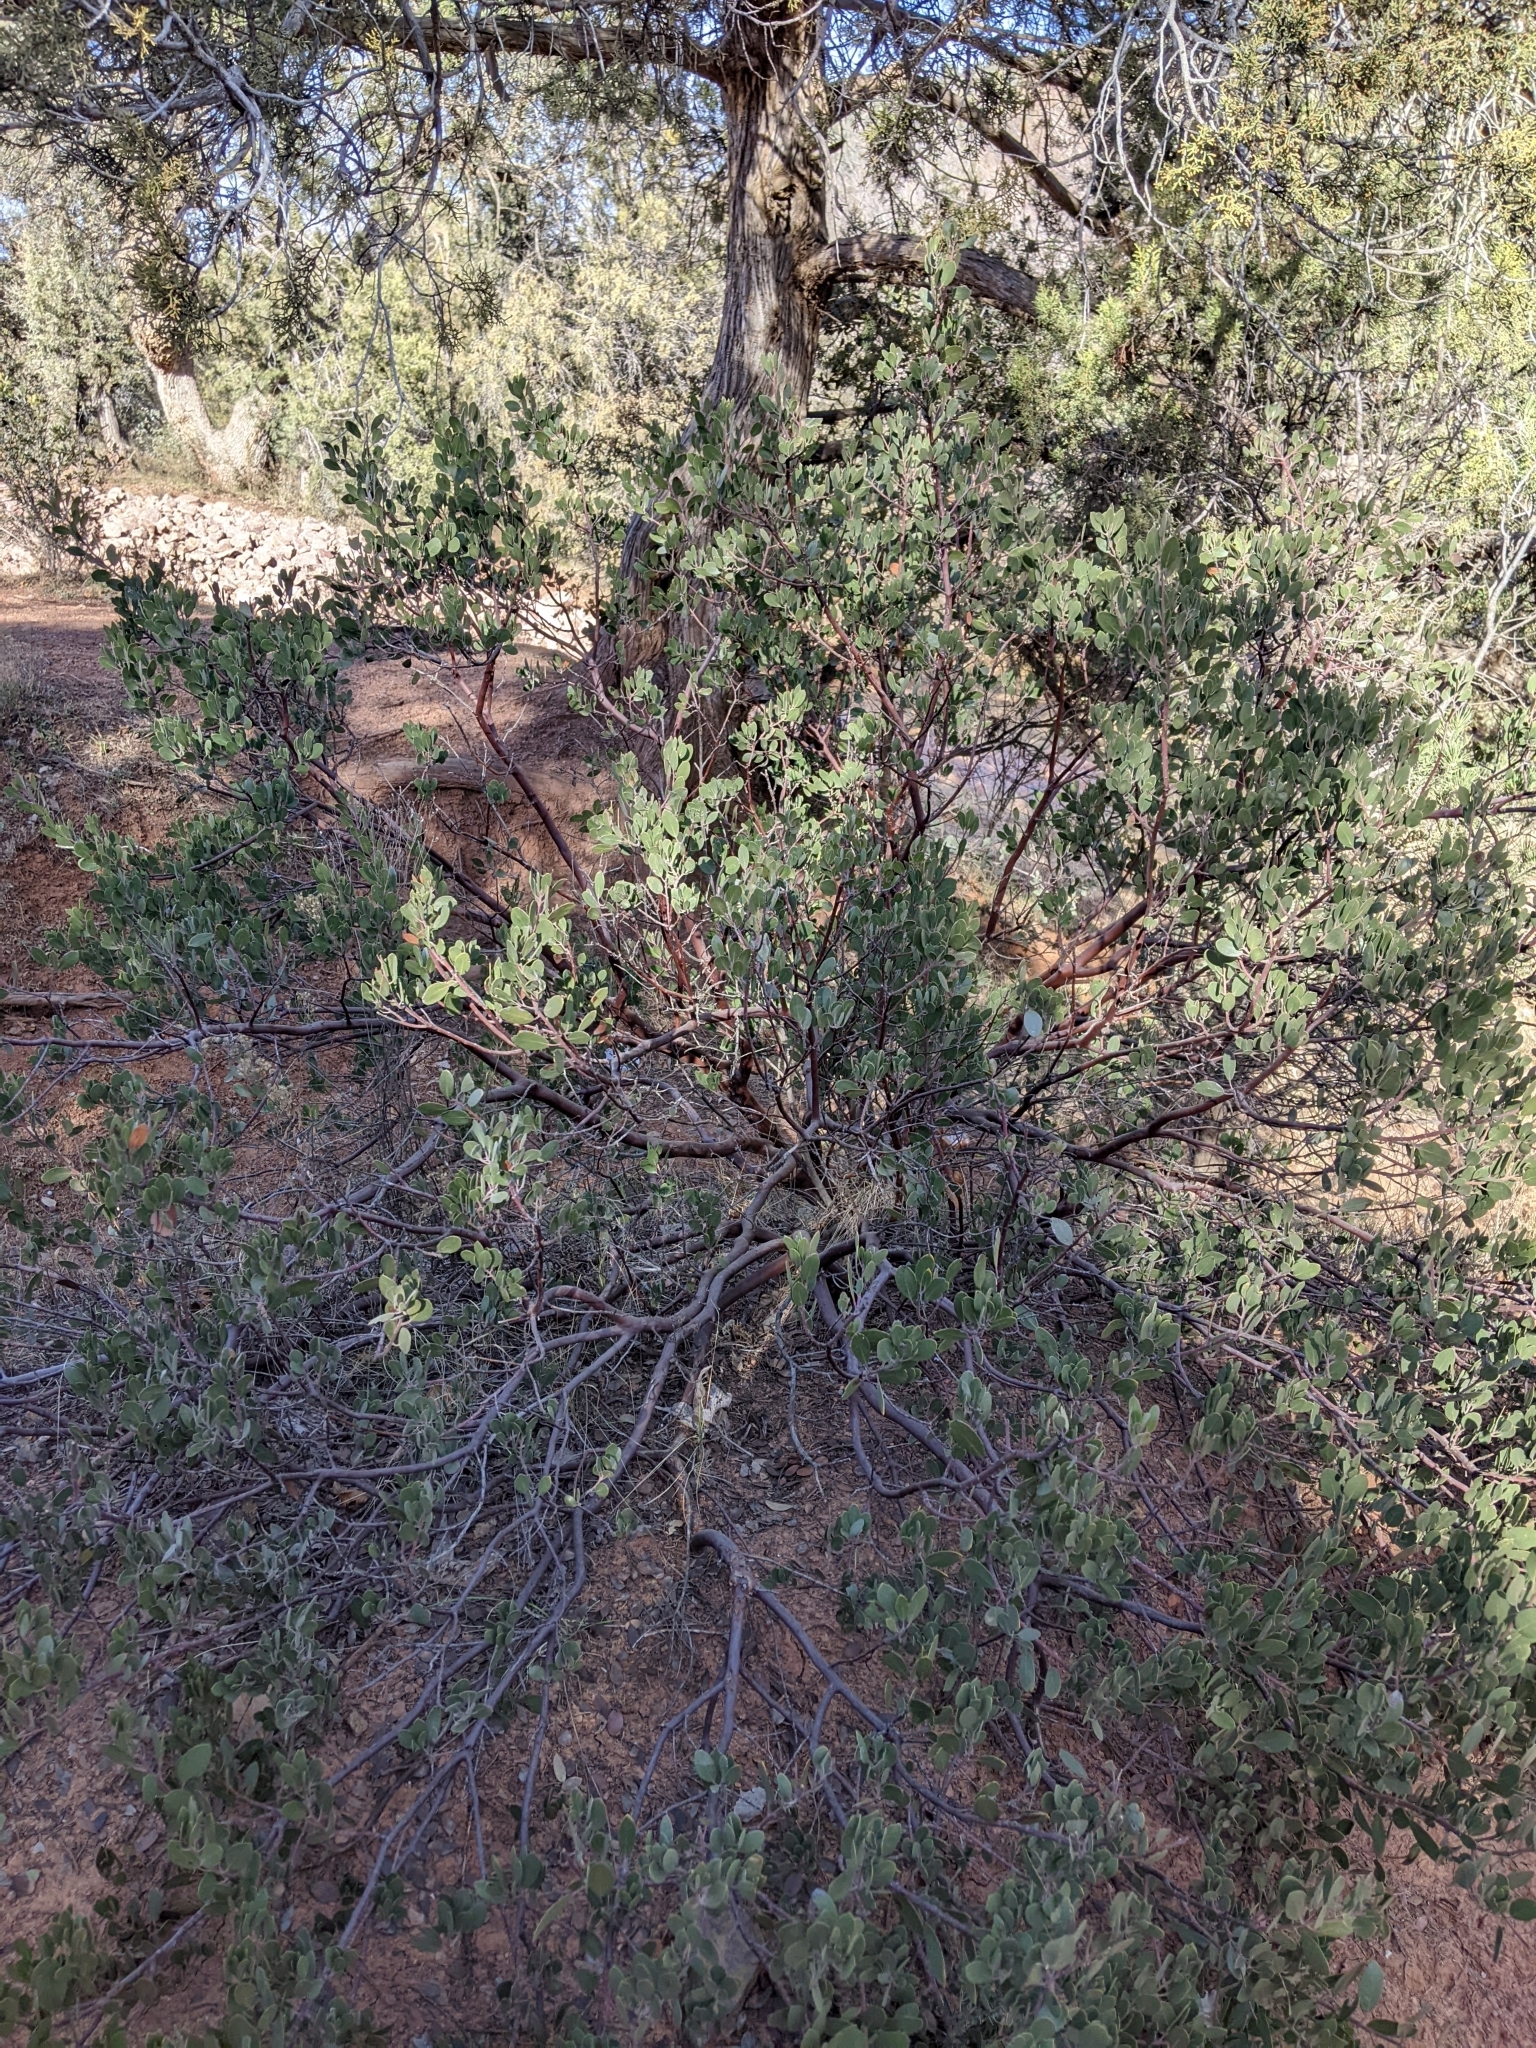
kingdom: Plantae
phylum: Tracheophyta
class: Magnoliopsida
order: Ericales
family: Ericaceae
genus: Arctostaphylos
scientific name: Arctostaphylos pungens
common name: Mexican manzanita
